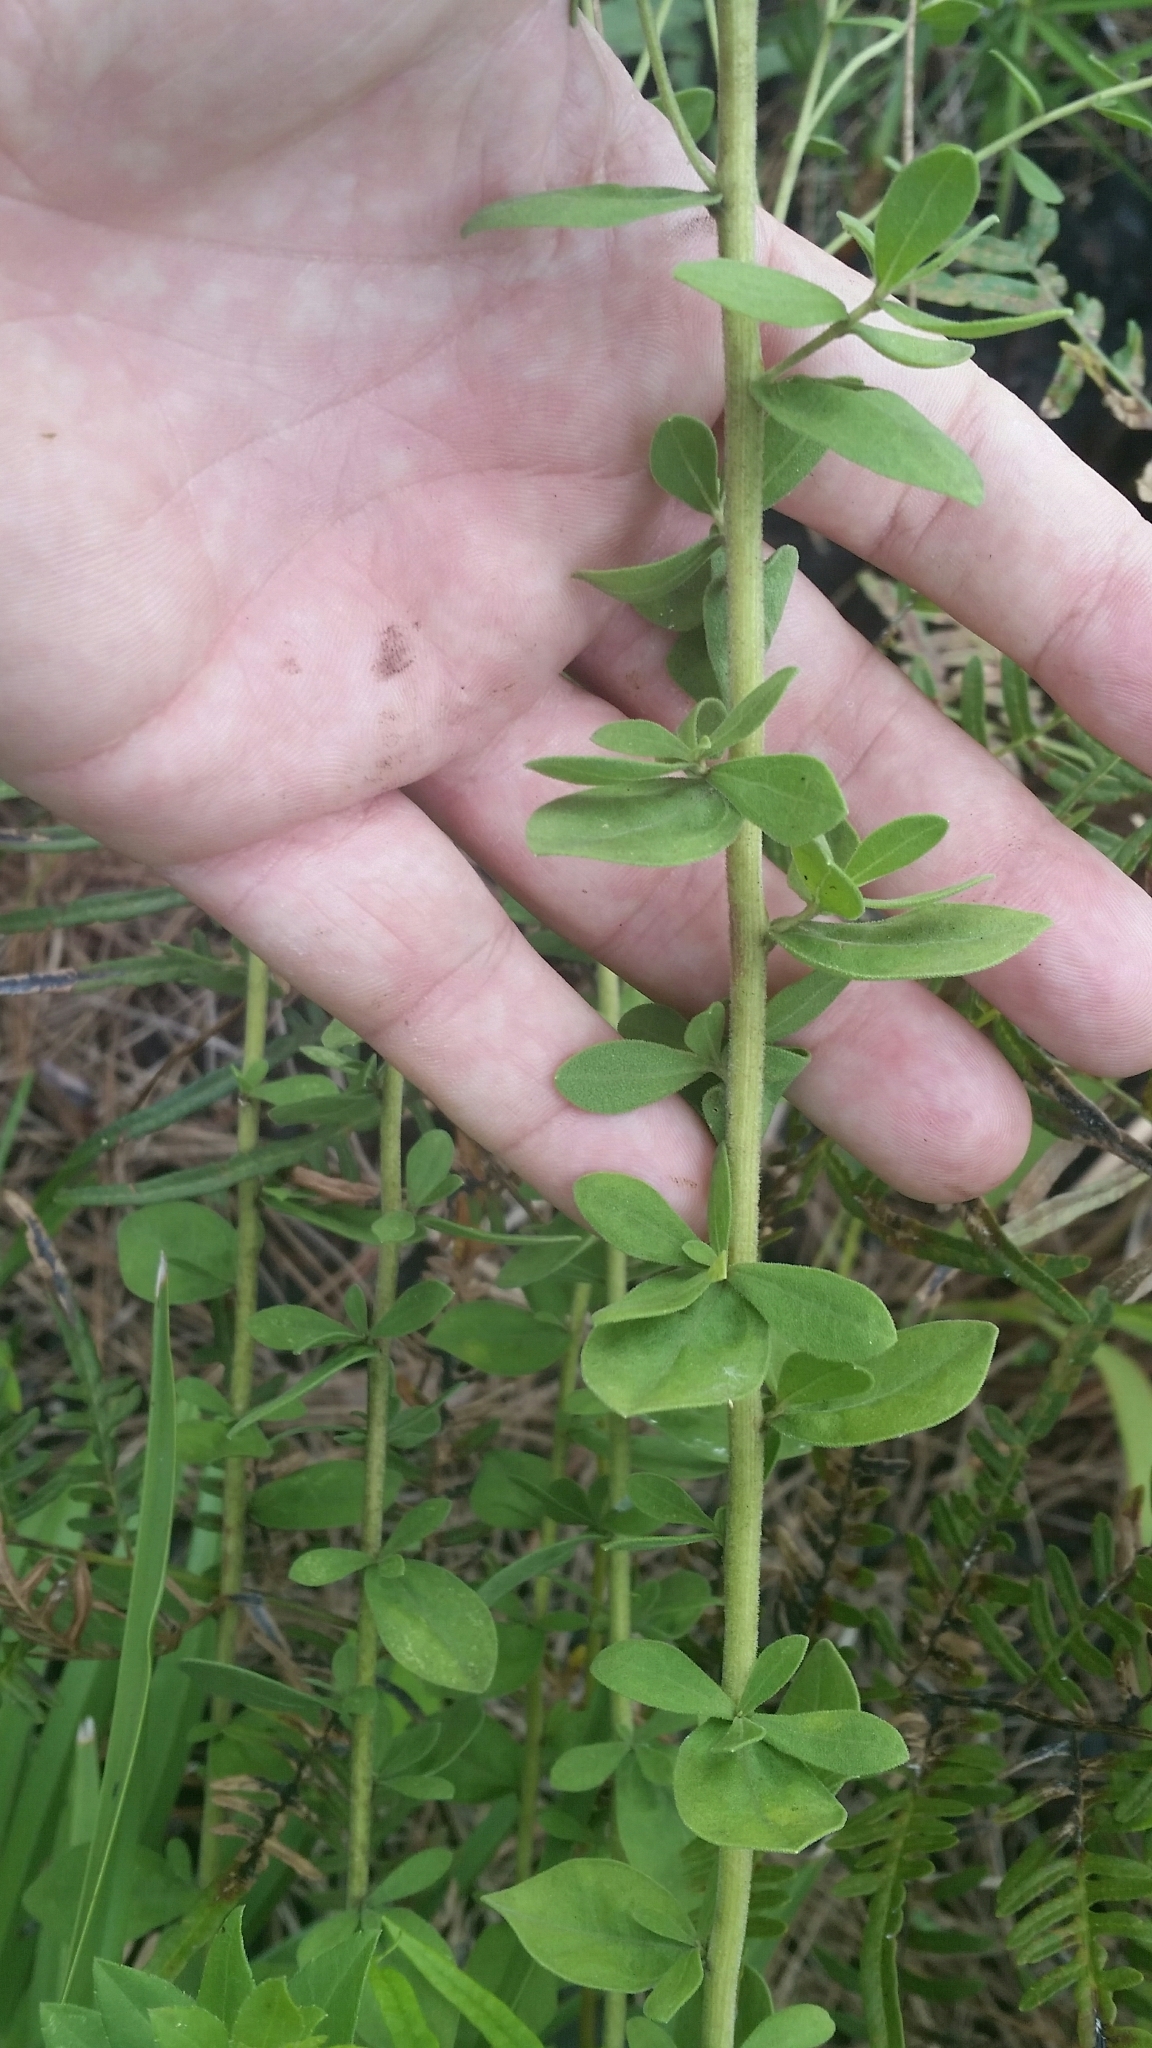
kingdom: Plantae
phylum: Tracheophyta
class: Magnoliopsida
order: Asterales
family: Asteraceae
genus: Sericocarpus
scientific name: Sericocarpus tortifolius
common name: Dixie aster
